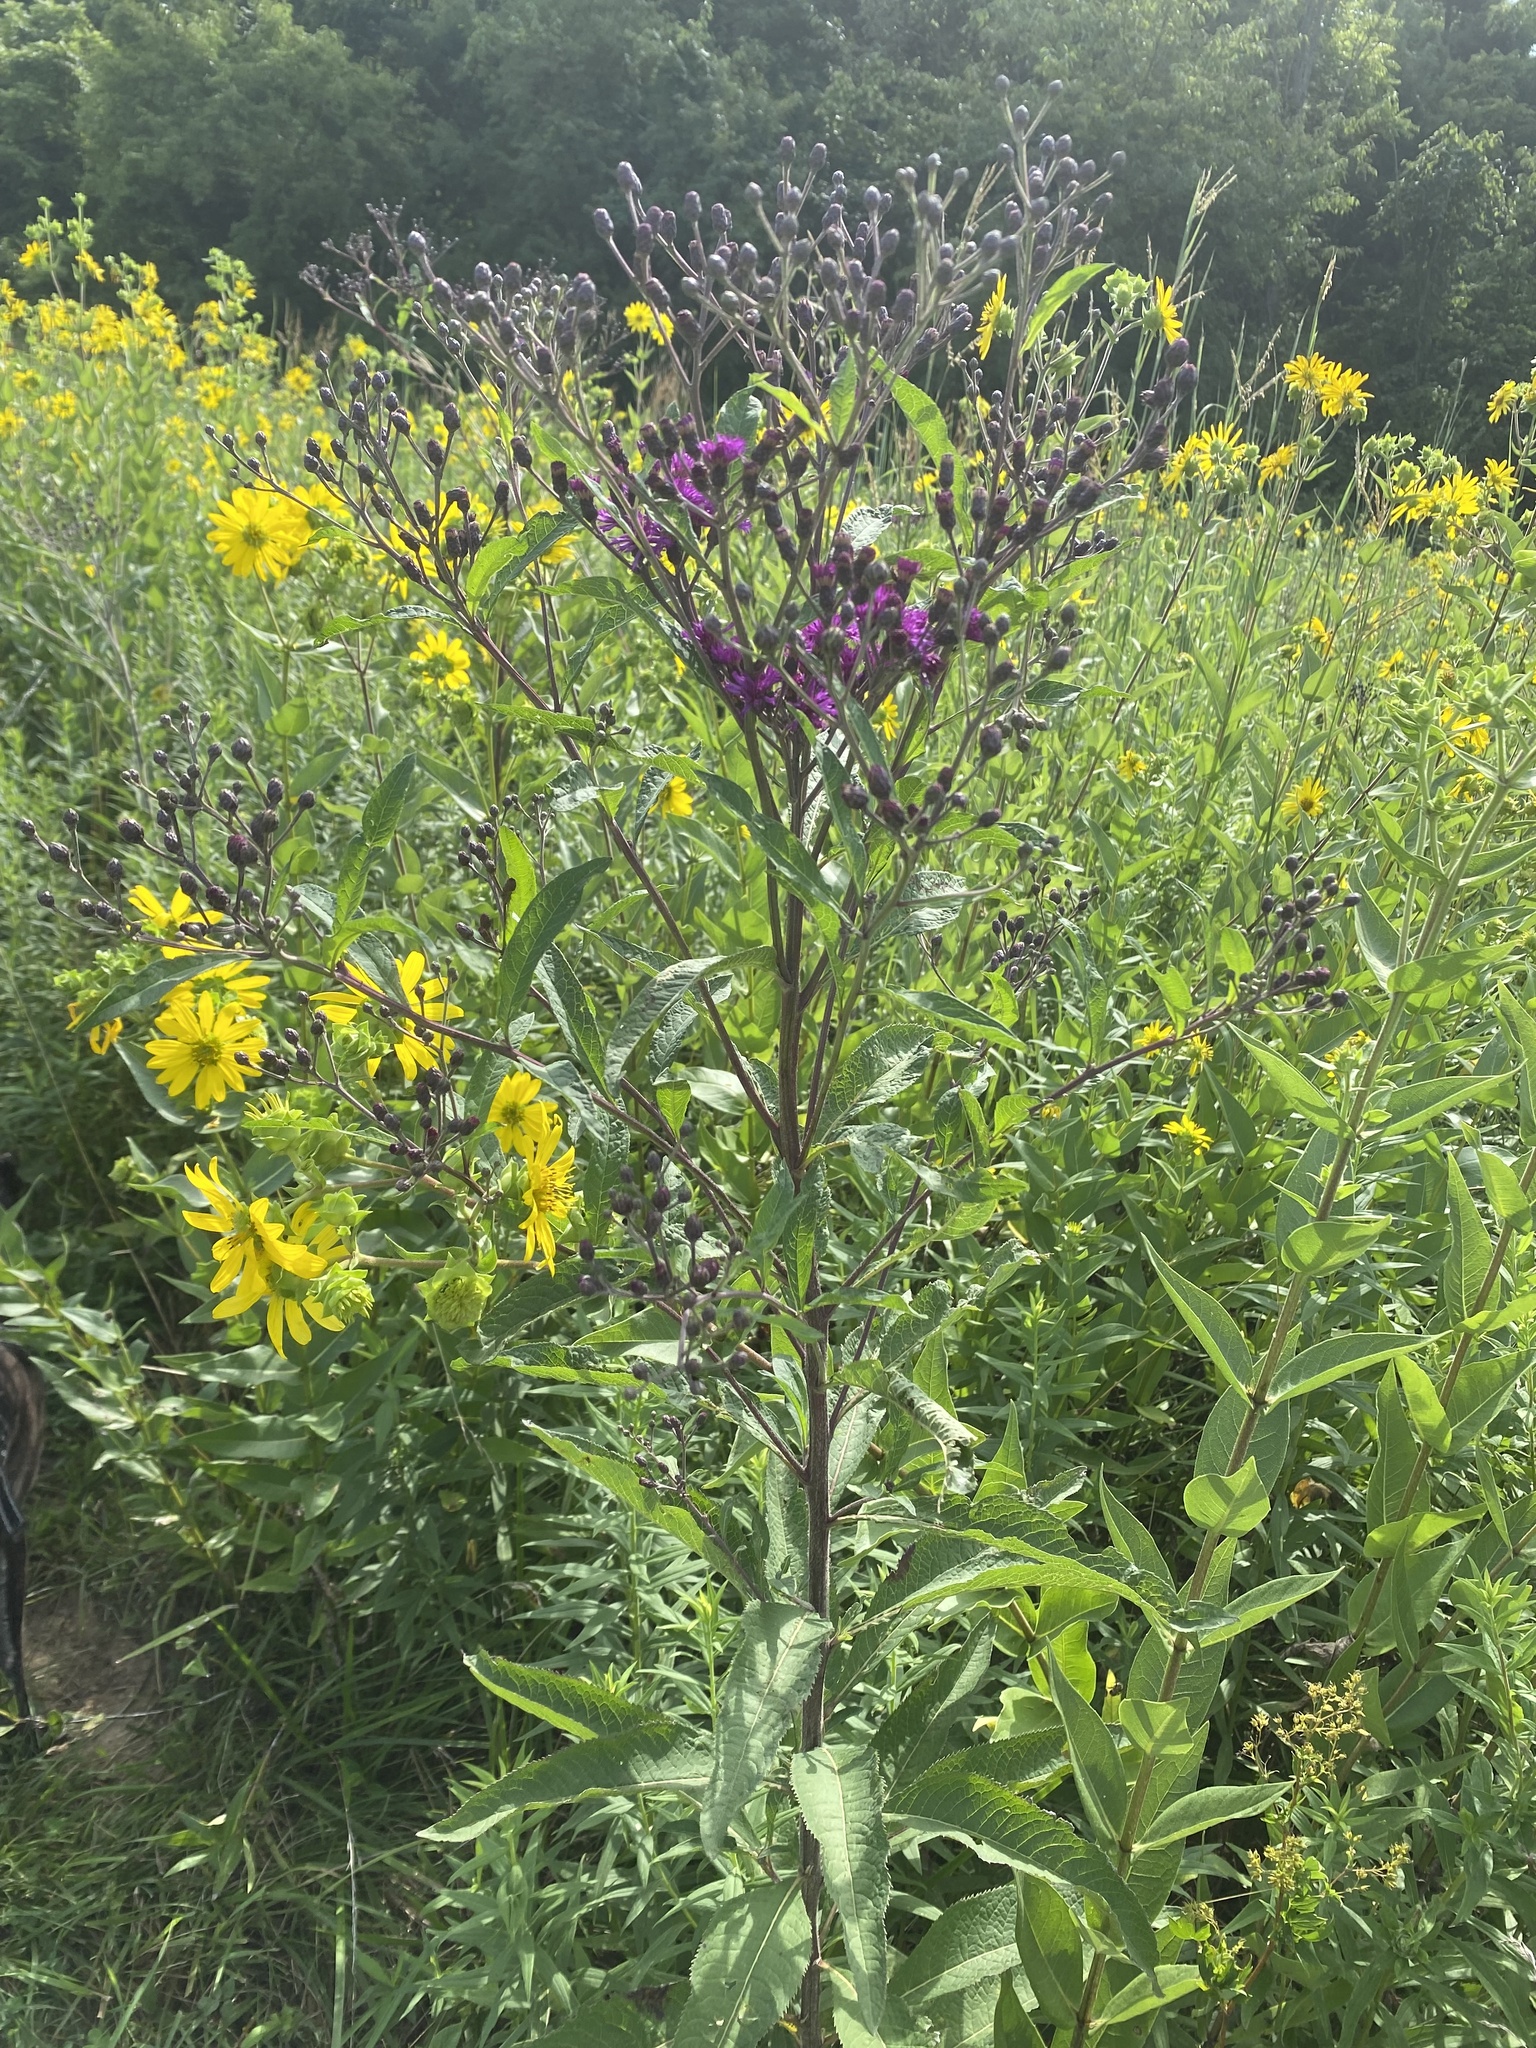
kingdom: Plantae
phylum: Tracheophyta
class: Magnoliopsida
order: Asterales
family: Asteraceae
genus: Vernonia
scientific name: Vernonia gigantea
